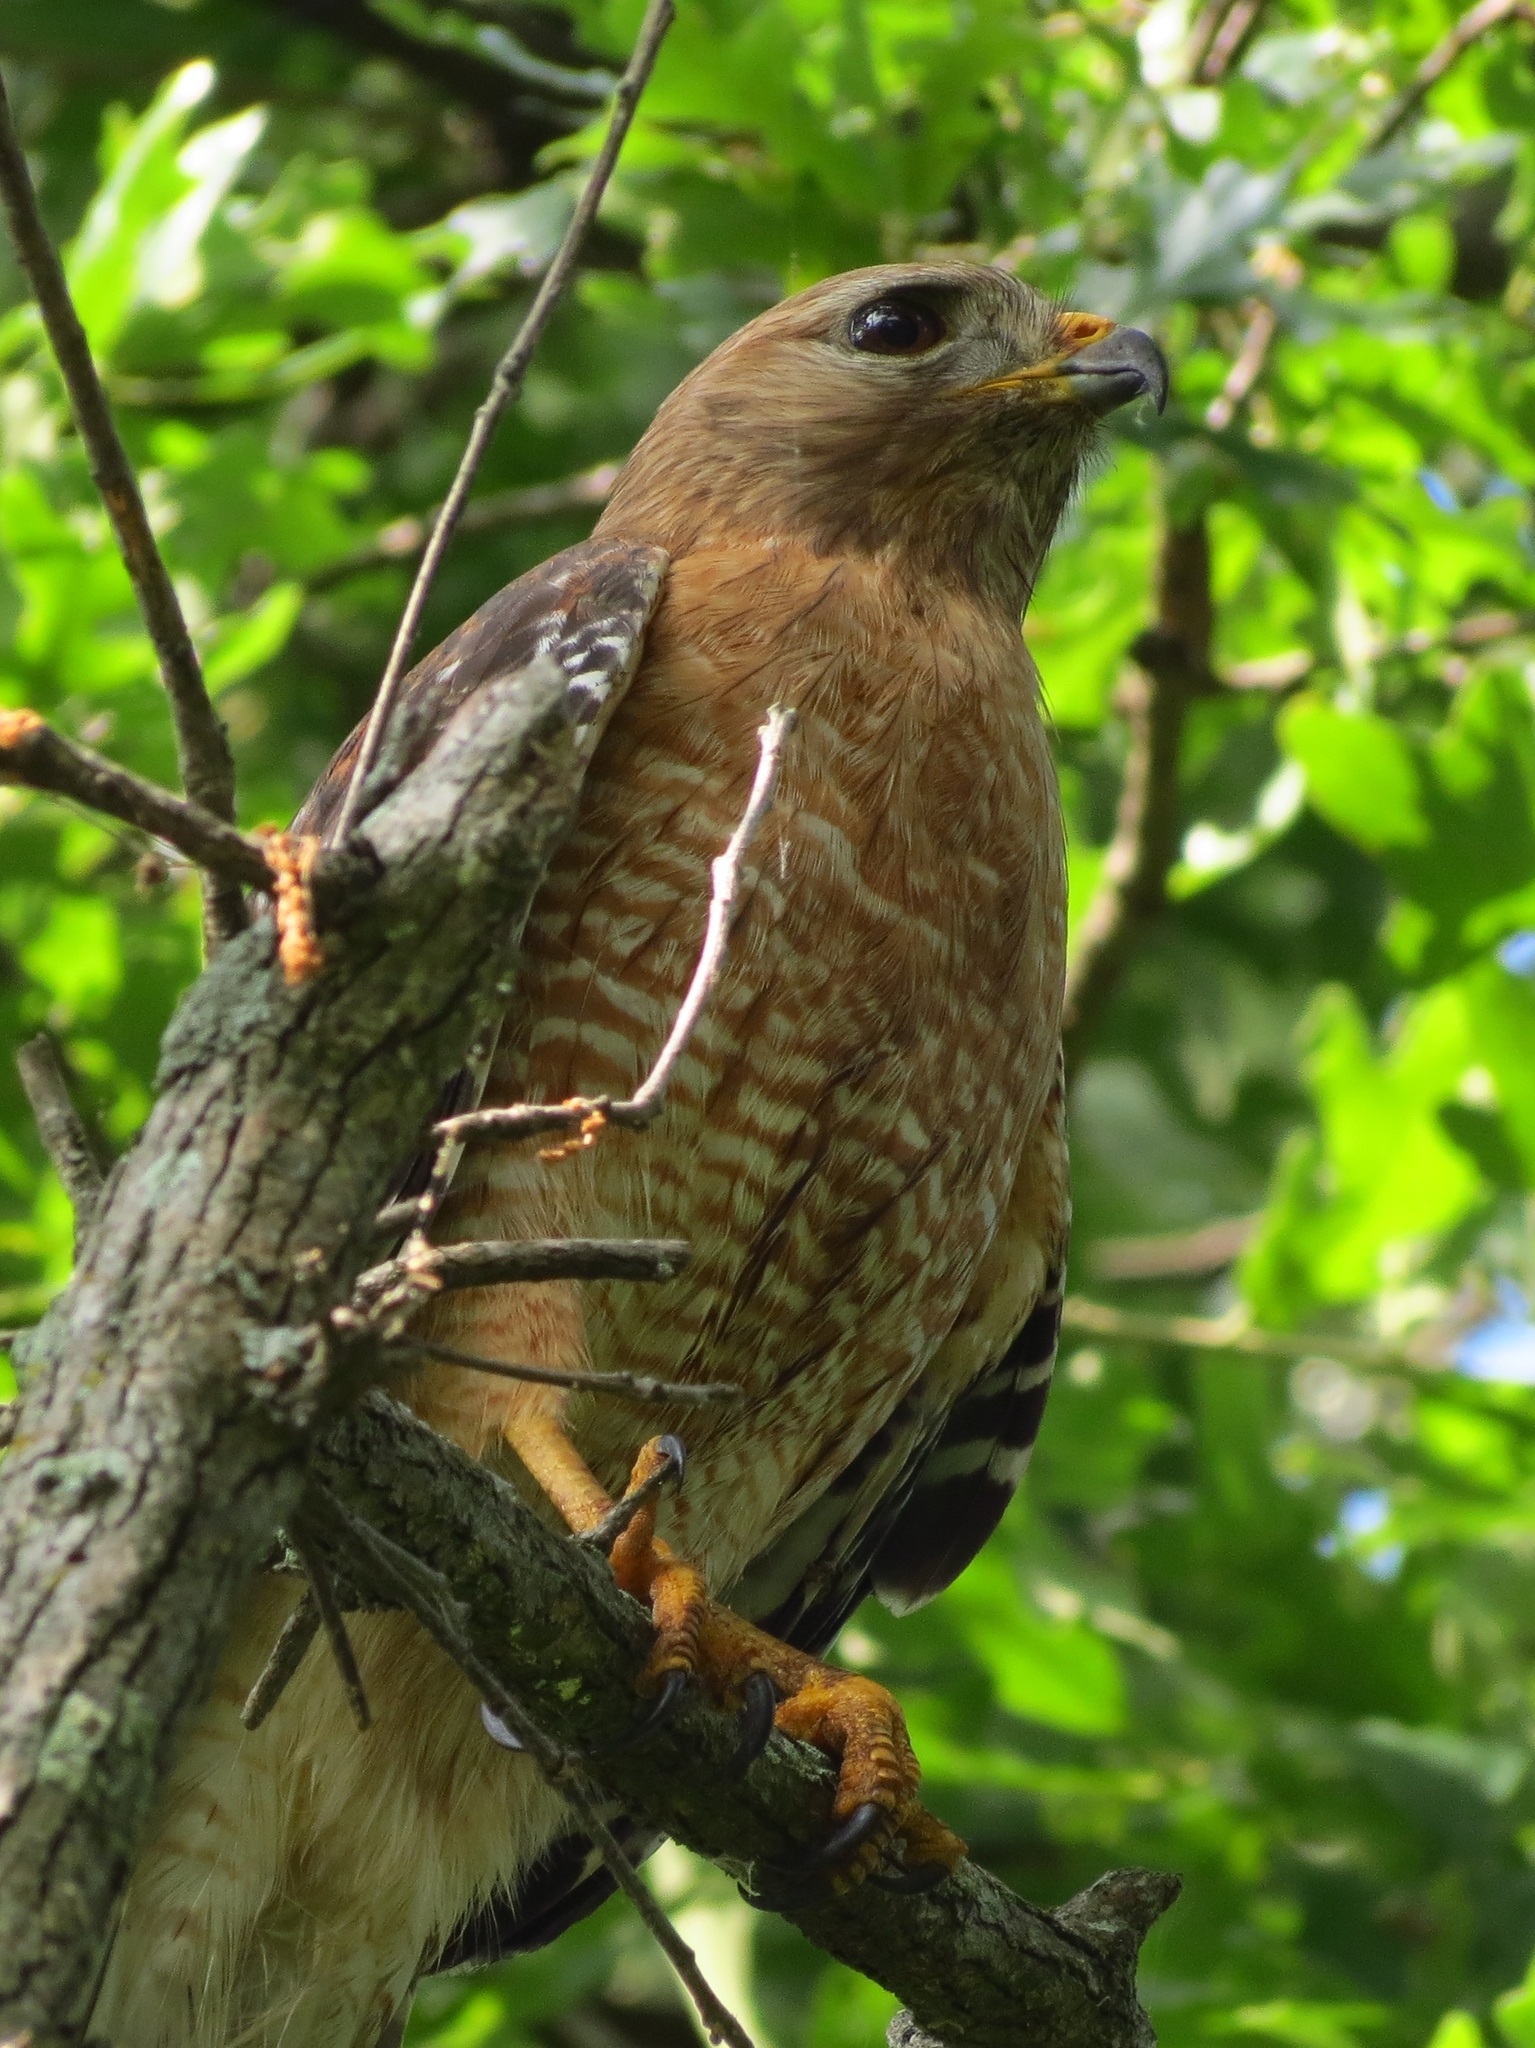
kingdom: Animalia
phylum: Chordata
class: Aves
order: Accipitriformes
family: Accipitridae
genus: Buteo
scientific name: Buteo lineatus
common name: Red-shouldered hawk
